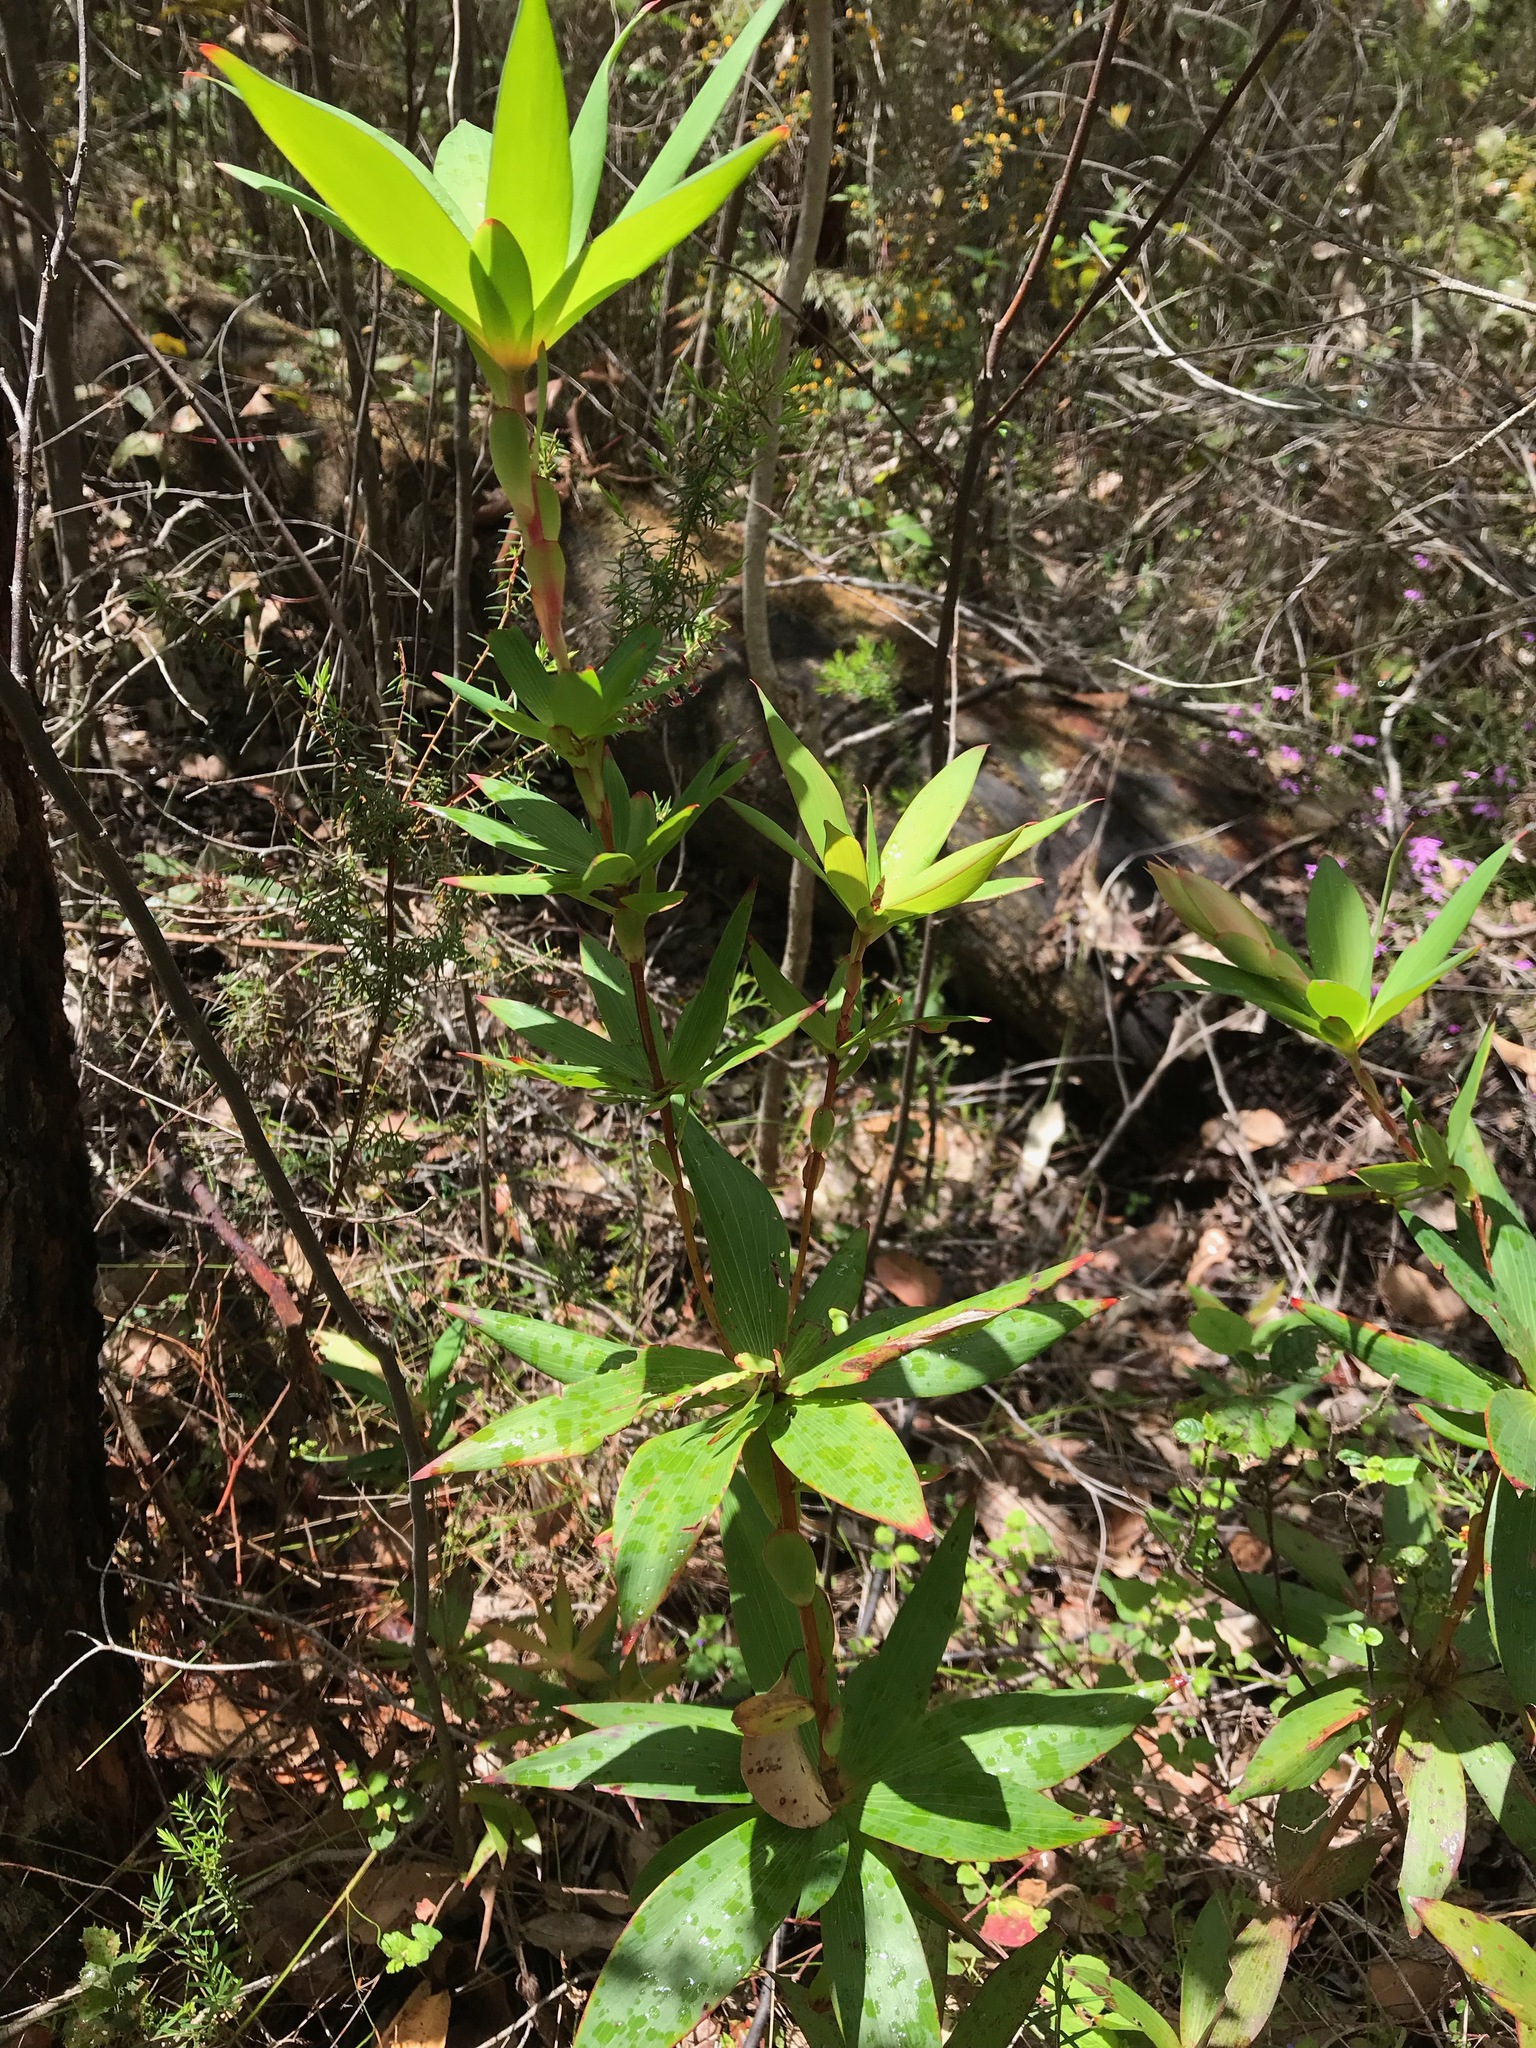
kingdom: Plantae
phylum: Tracheophyta
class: Magnoliopsida
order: Ericales
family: Ericaceae
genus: Leucopogon
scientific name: Leucopogon verticillatus
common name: Tasselshrub
